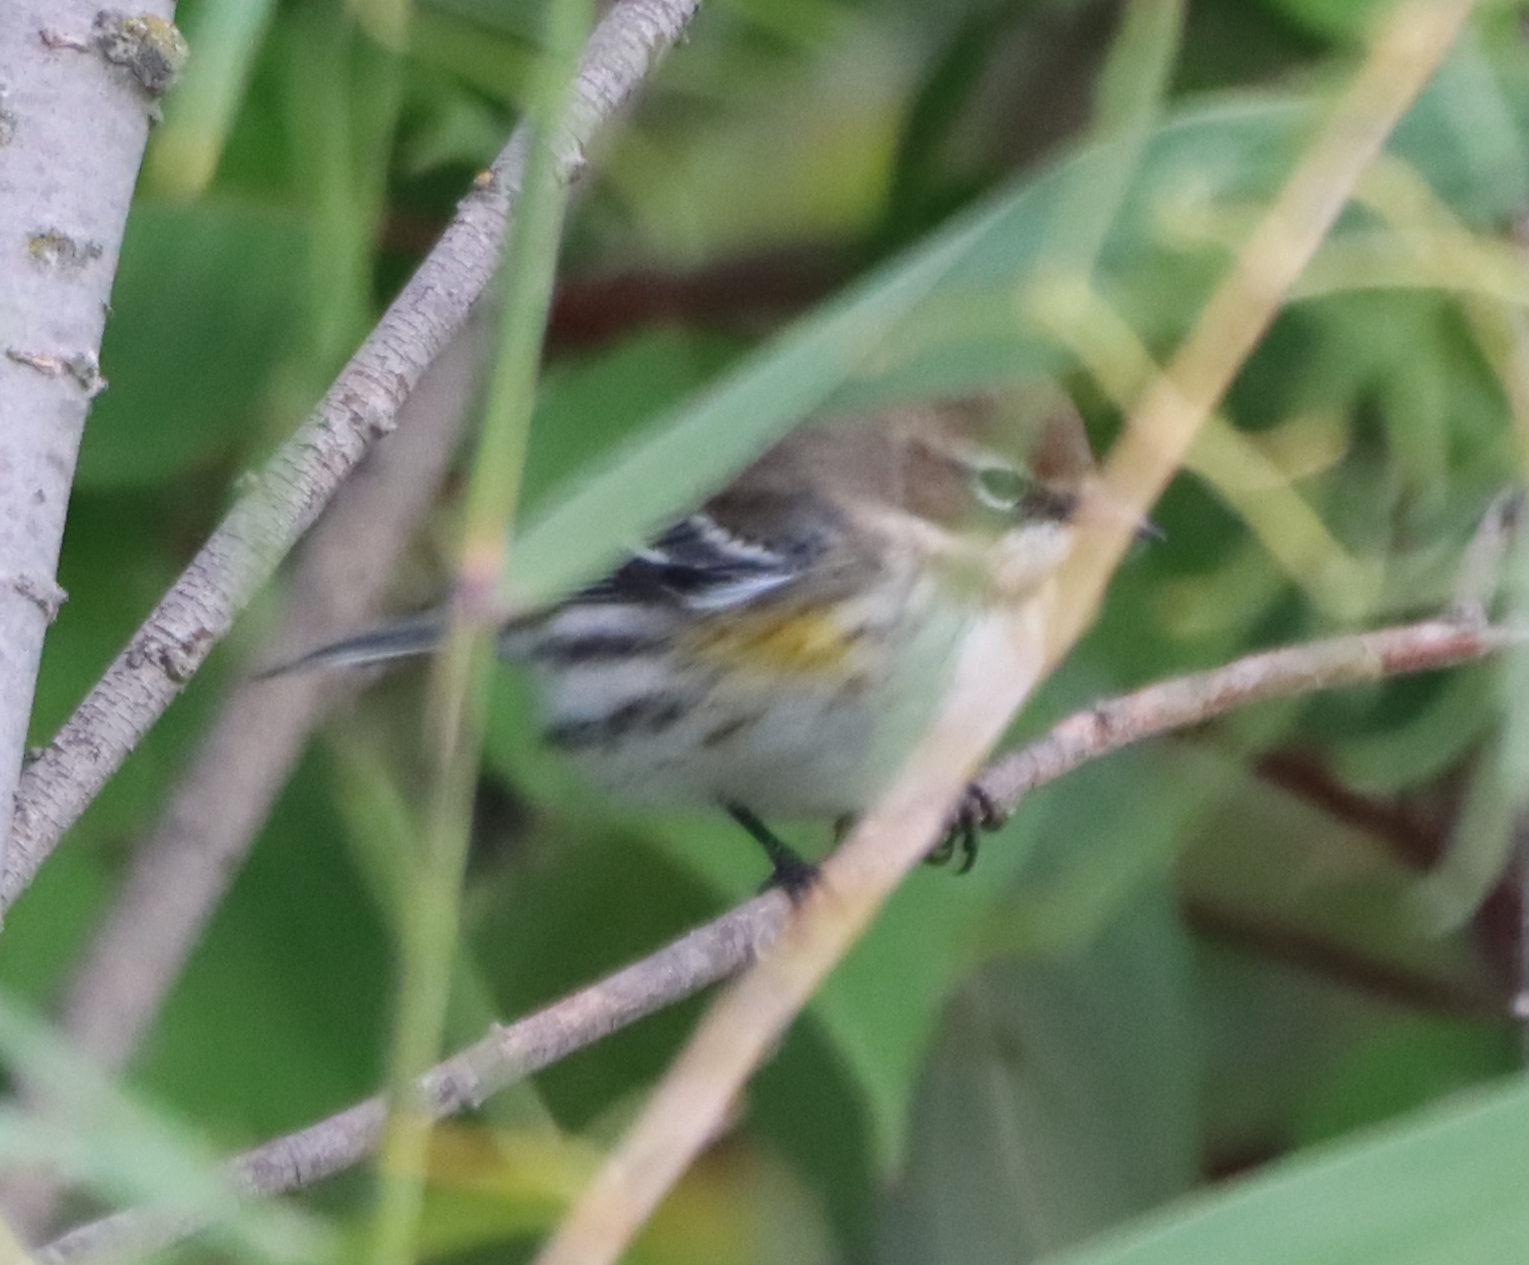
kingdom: Animalia
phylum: Chordata
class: Aves
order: Passeriformes
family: Parulidae
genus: Setophaga
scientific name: Setophaga coronata
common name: Myrtle warbler
